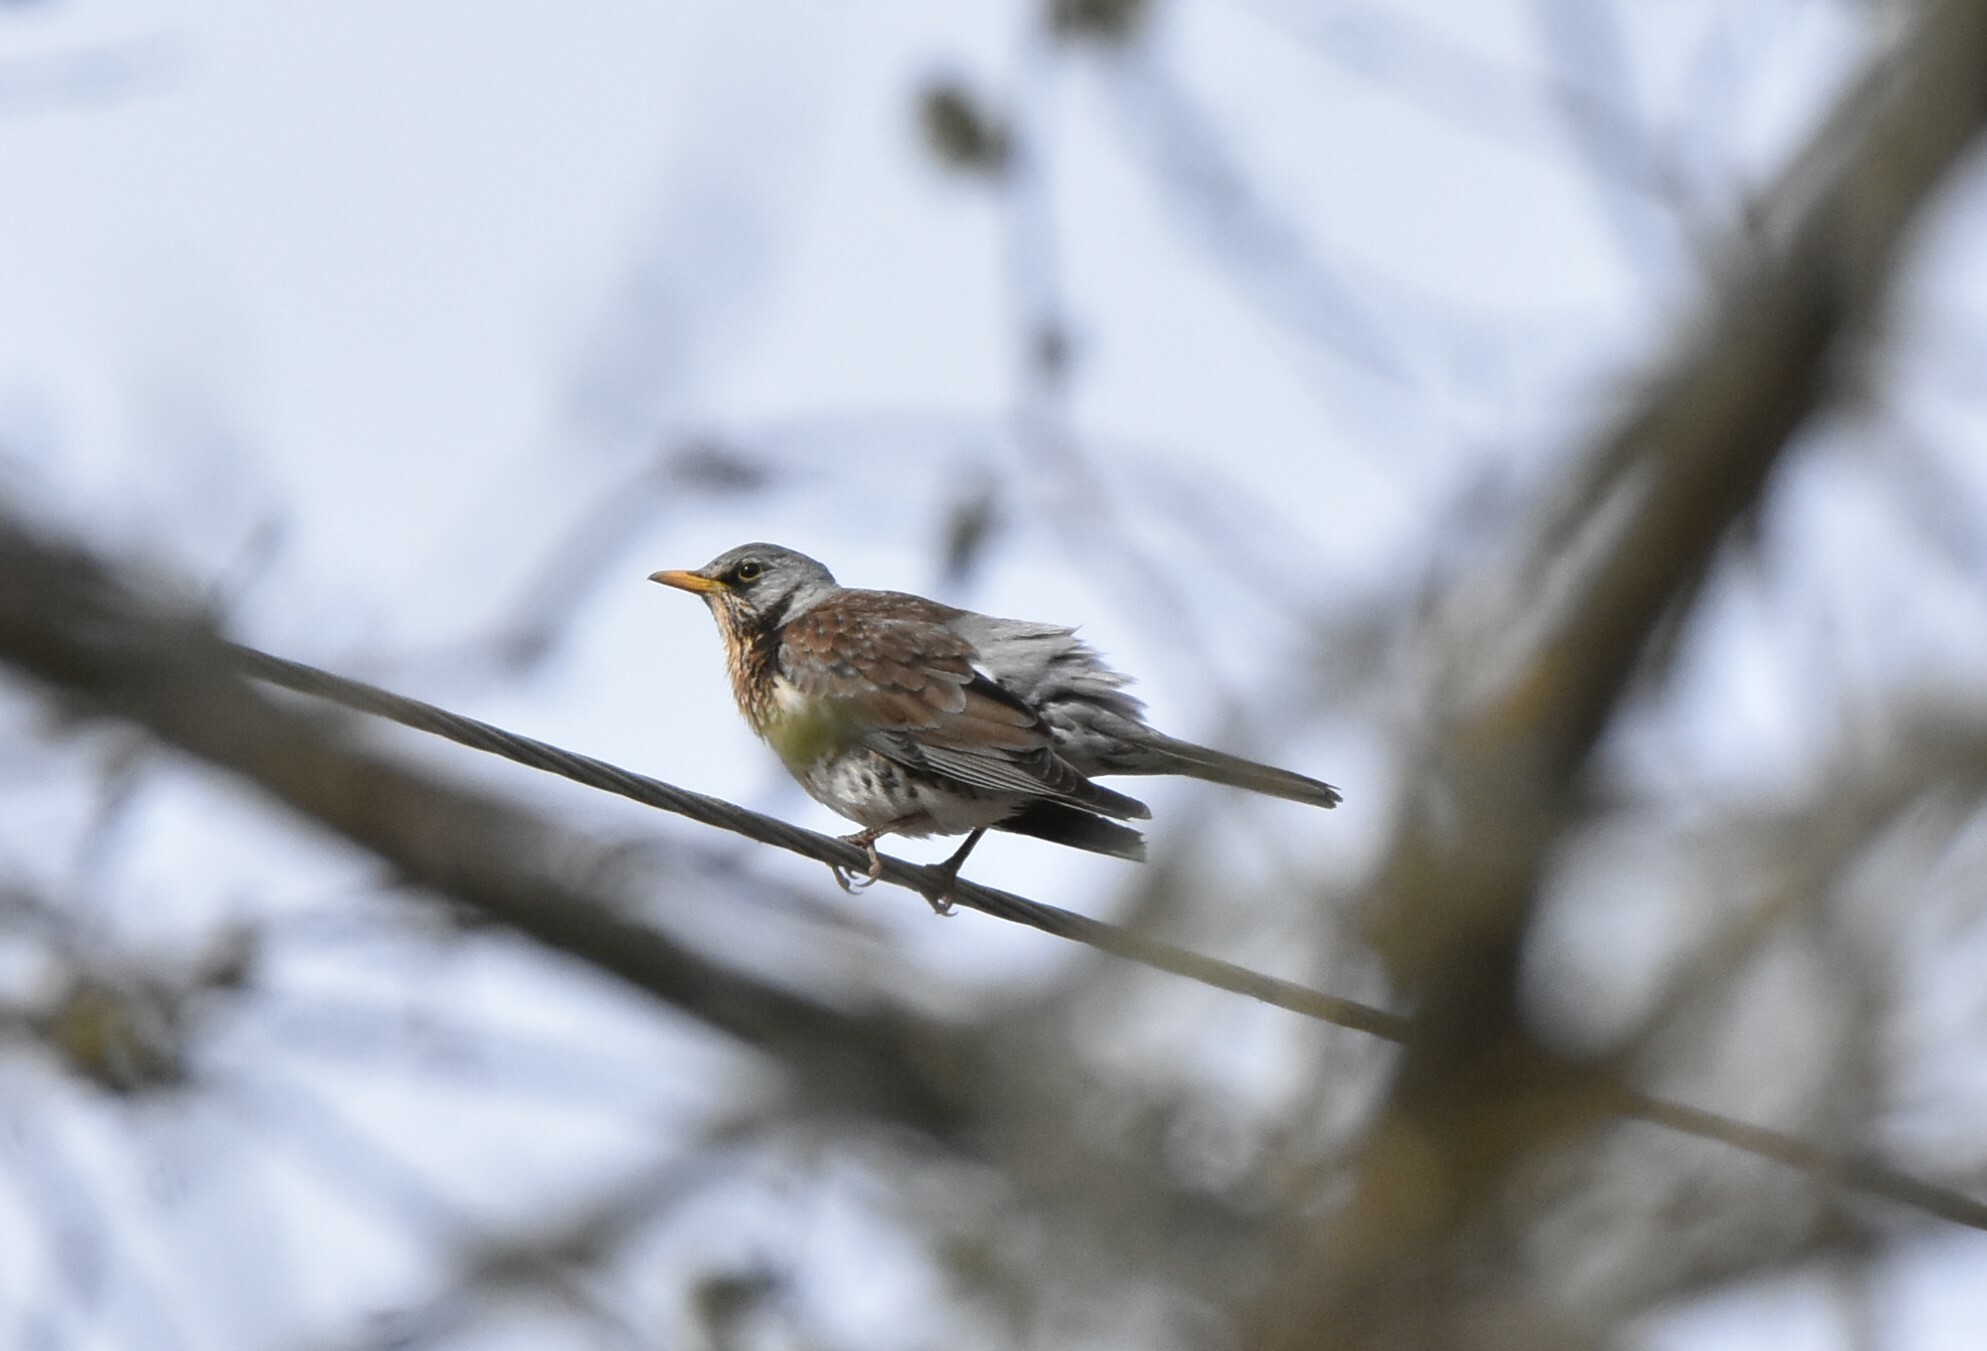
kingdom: Animalia
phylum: Chordata
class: Aves
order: Passeriformes
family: Turdidae
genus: Turdus
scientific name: Turdus pilaris
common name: Fieldfare
